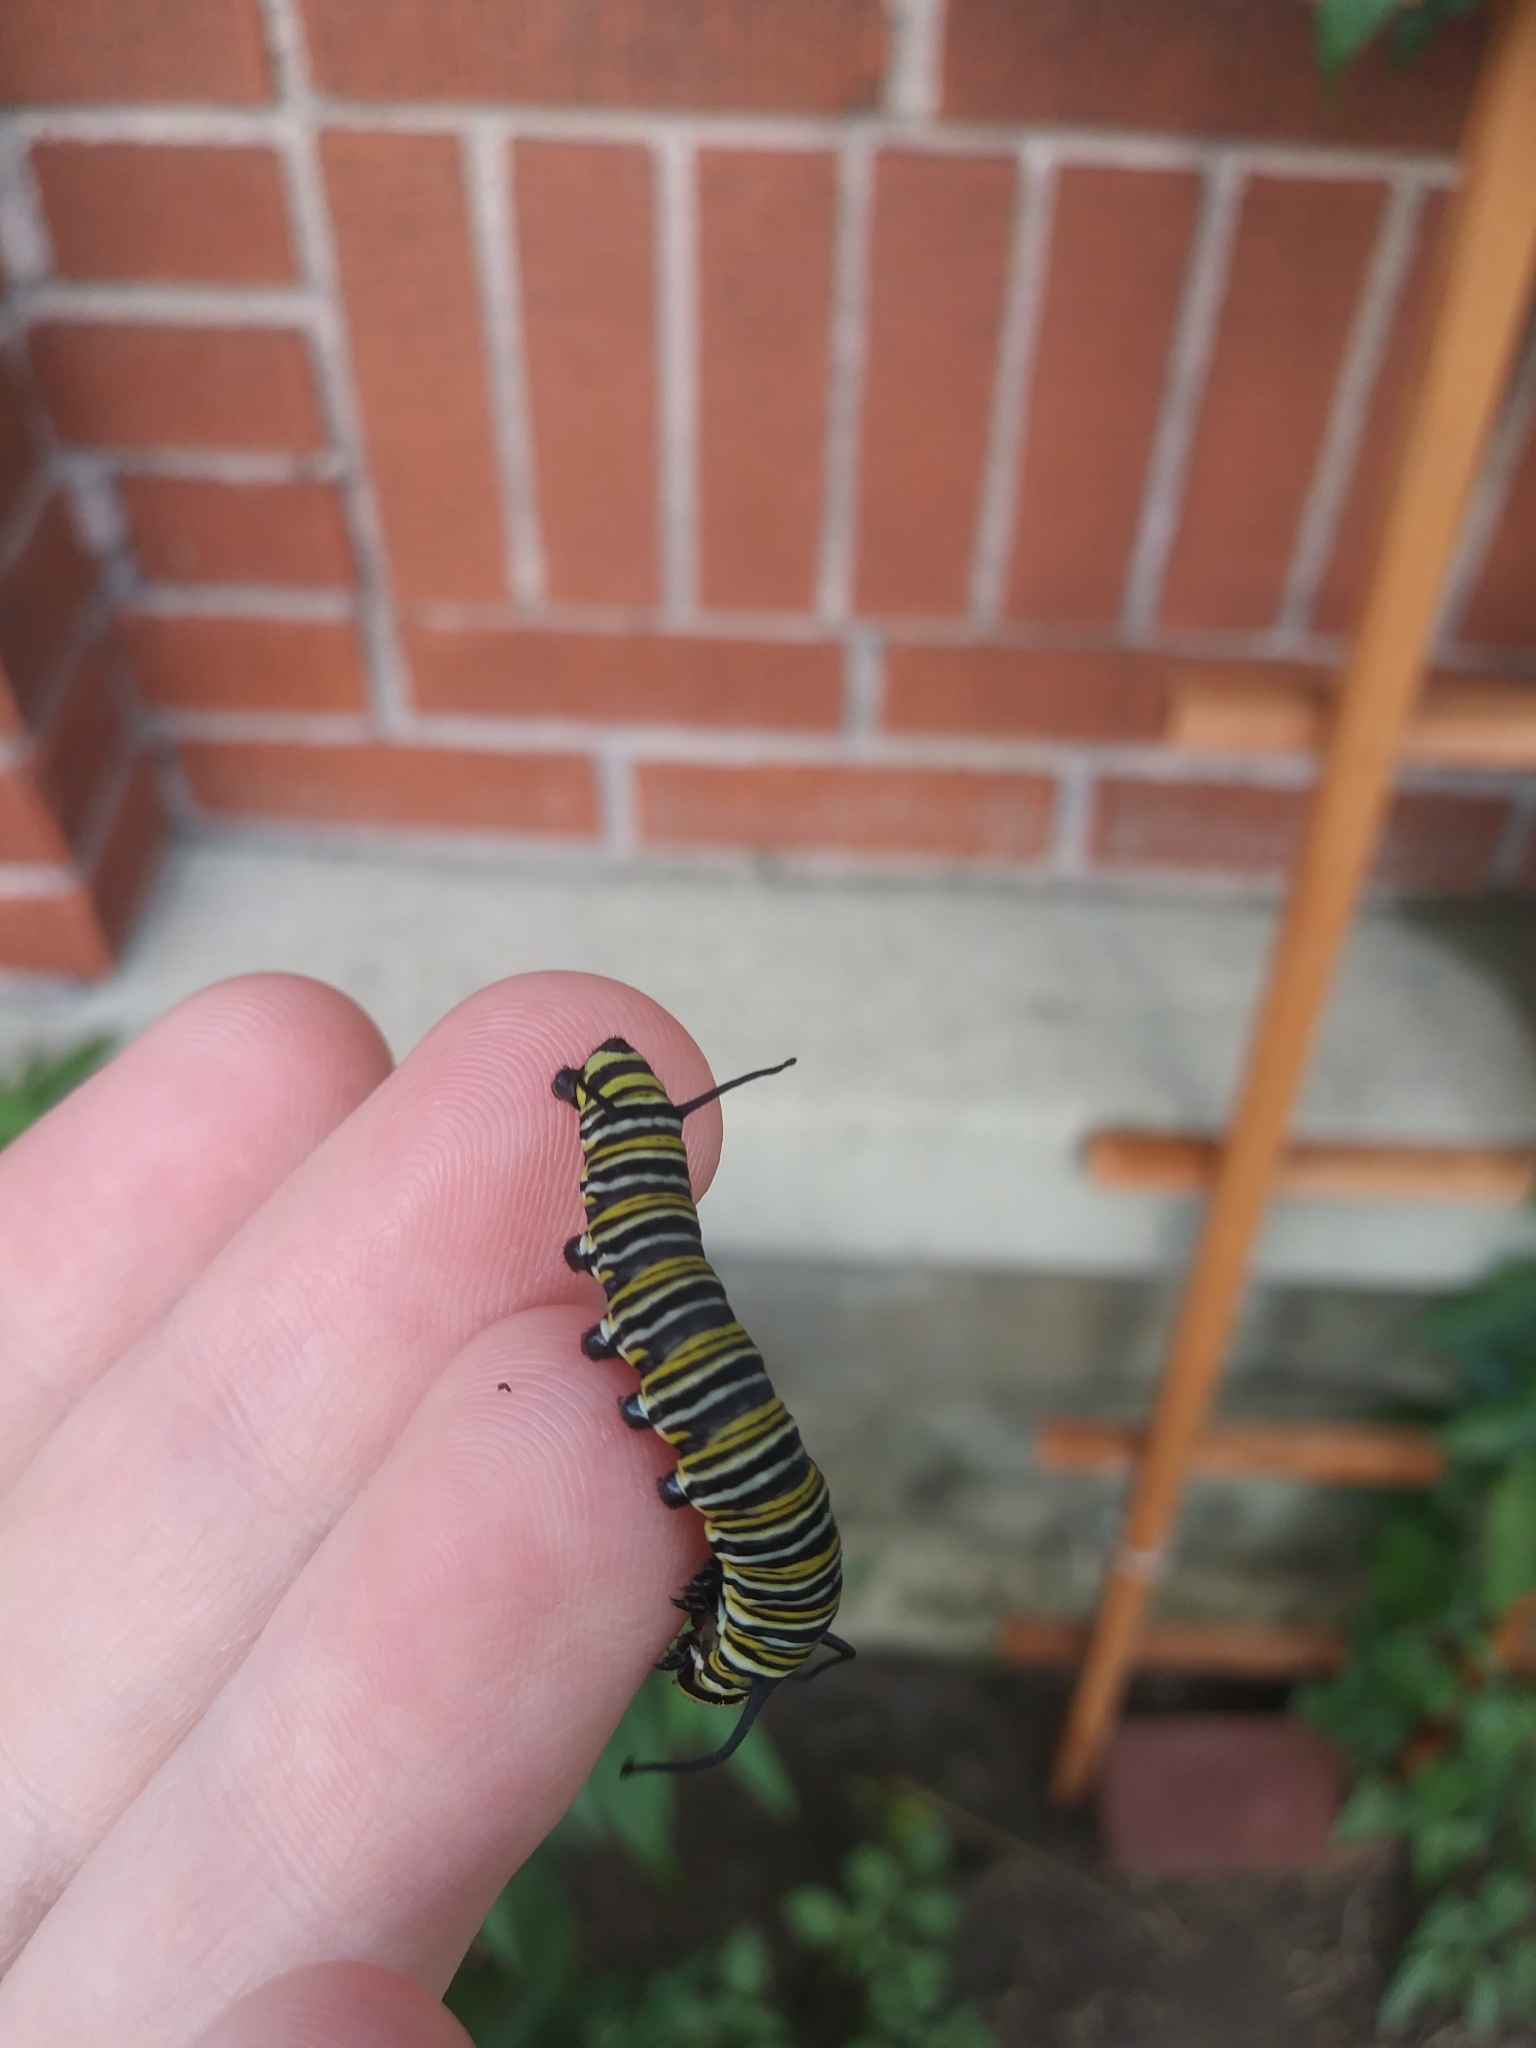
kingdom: Animalia
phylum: Arthropoda
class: Insecta
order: Lepidoptera
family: Nymphalidae
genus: Danaus
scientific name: Danaus plexippus
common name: Monarch
